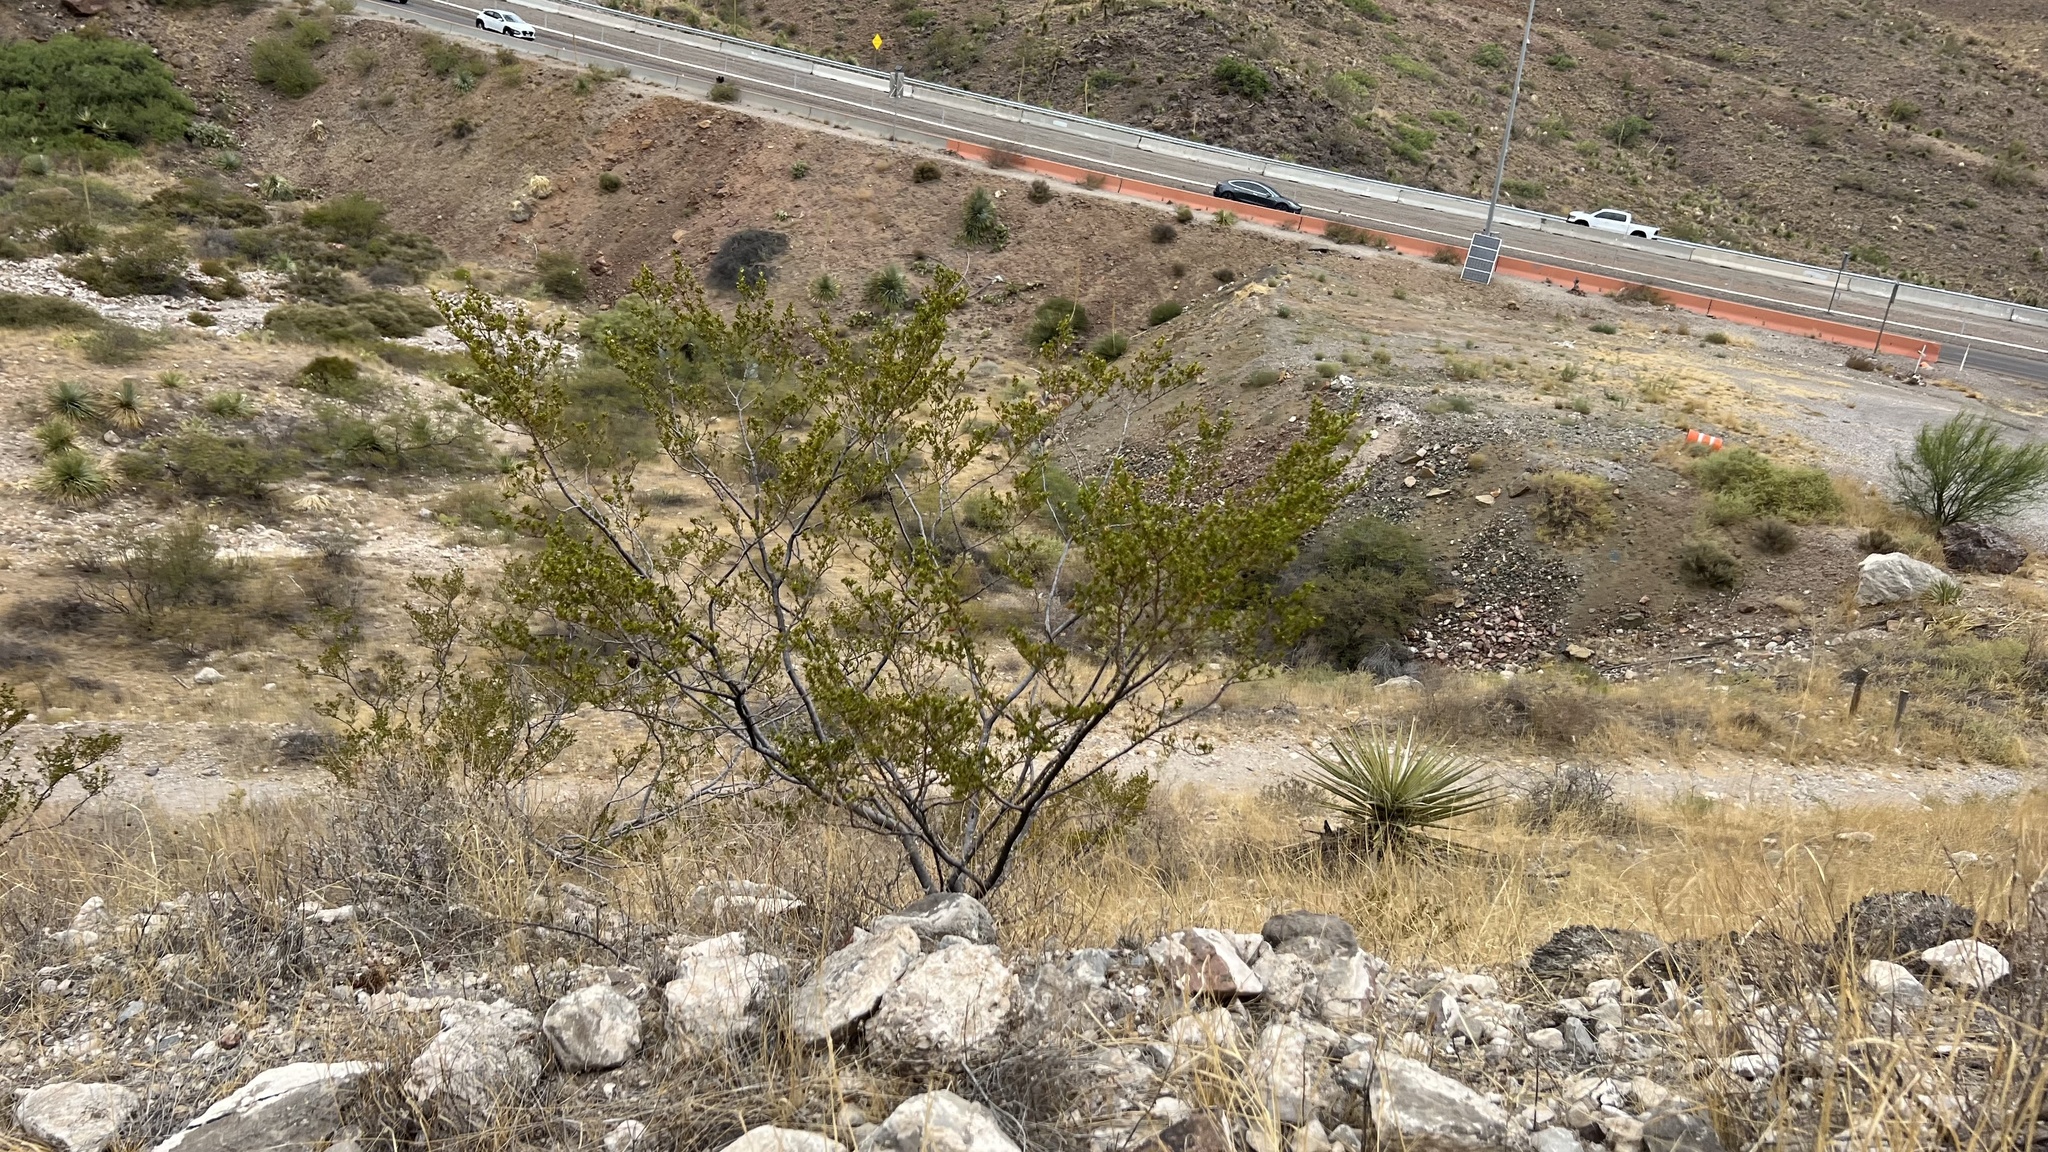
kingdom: Plantae
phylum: Tracheophyta
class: Magnoliopsida
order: Zygophyllales
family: Zygophyllaceae
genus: Larrea
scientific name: Larrea tridentata
